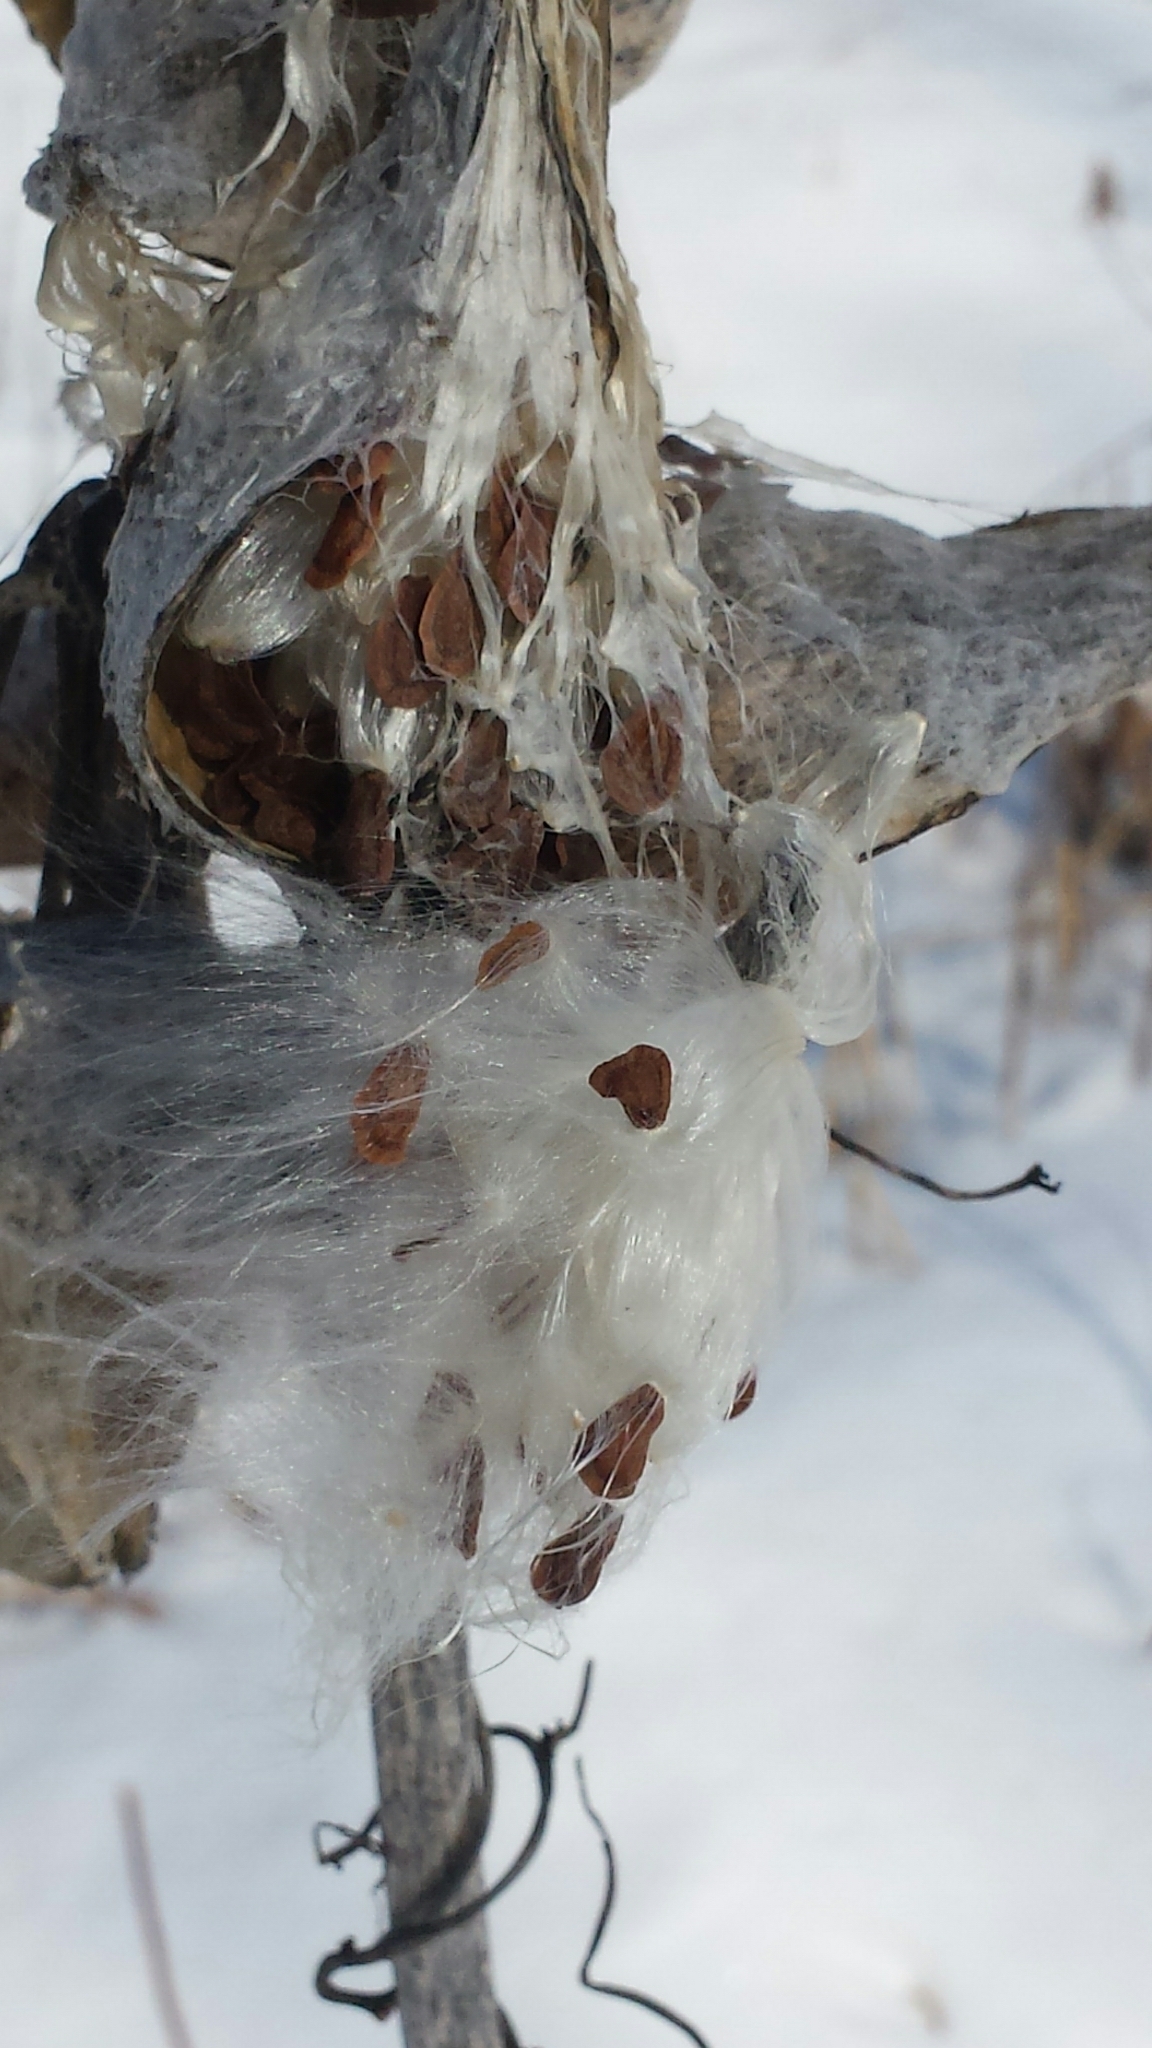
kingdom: Plantae
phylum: Tracheophyta
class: Magnoliopsida
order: Gentianales
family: Apocynaceae
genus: Asclepias
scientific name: Asclepias syriaca
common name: Common milkweed
